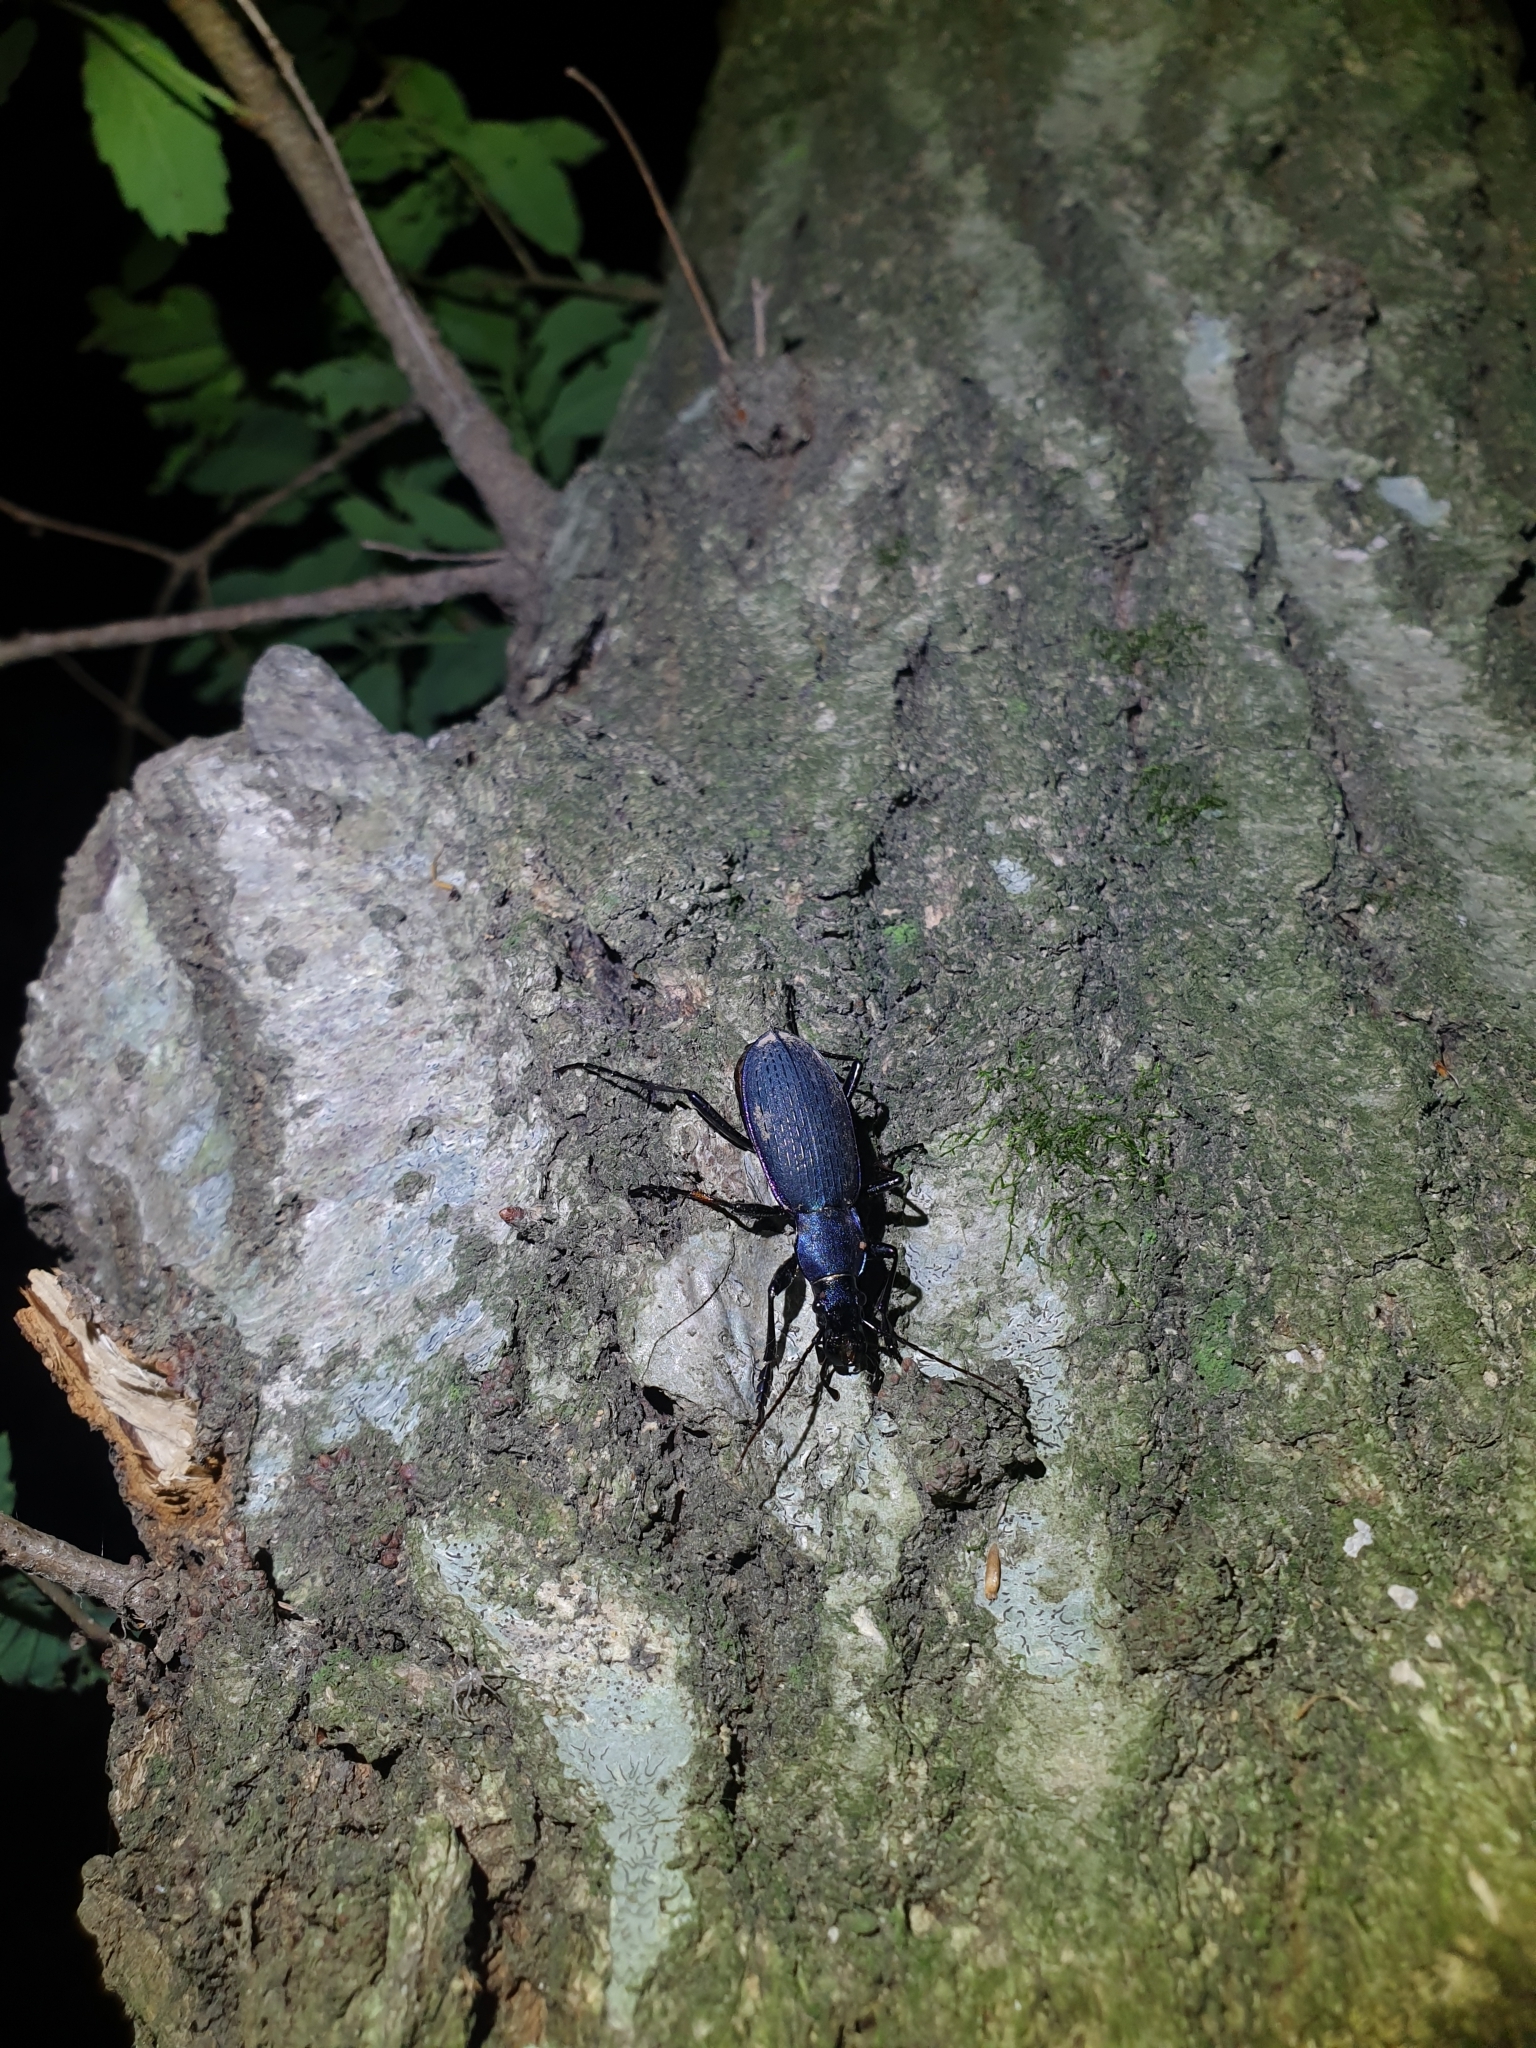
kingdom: Animalia
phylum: Arthropoda
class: Insecta
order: Coleoptera
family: Carabidae
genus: Carabus
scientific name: Carabus jankowskii
